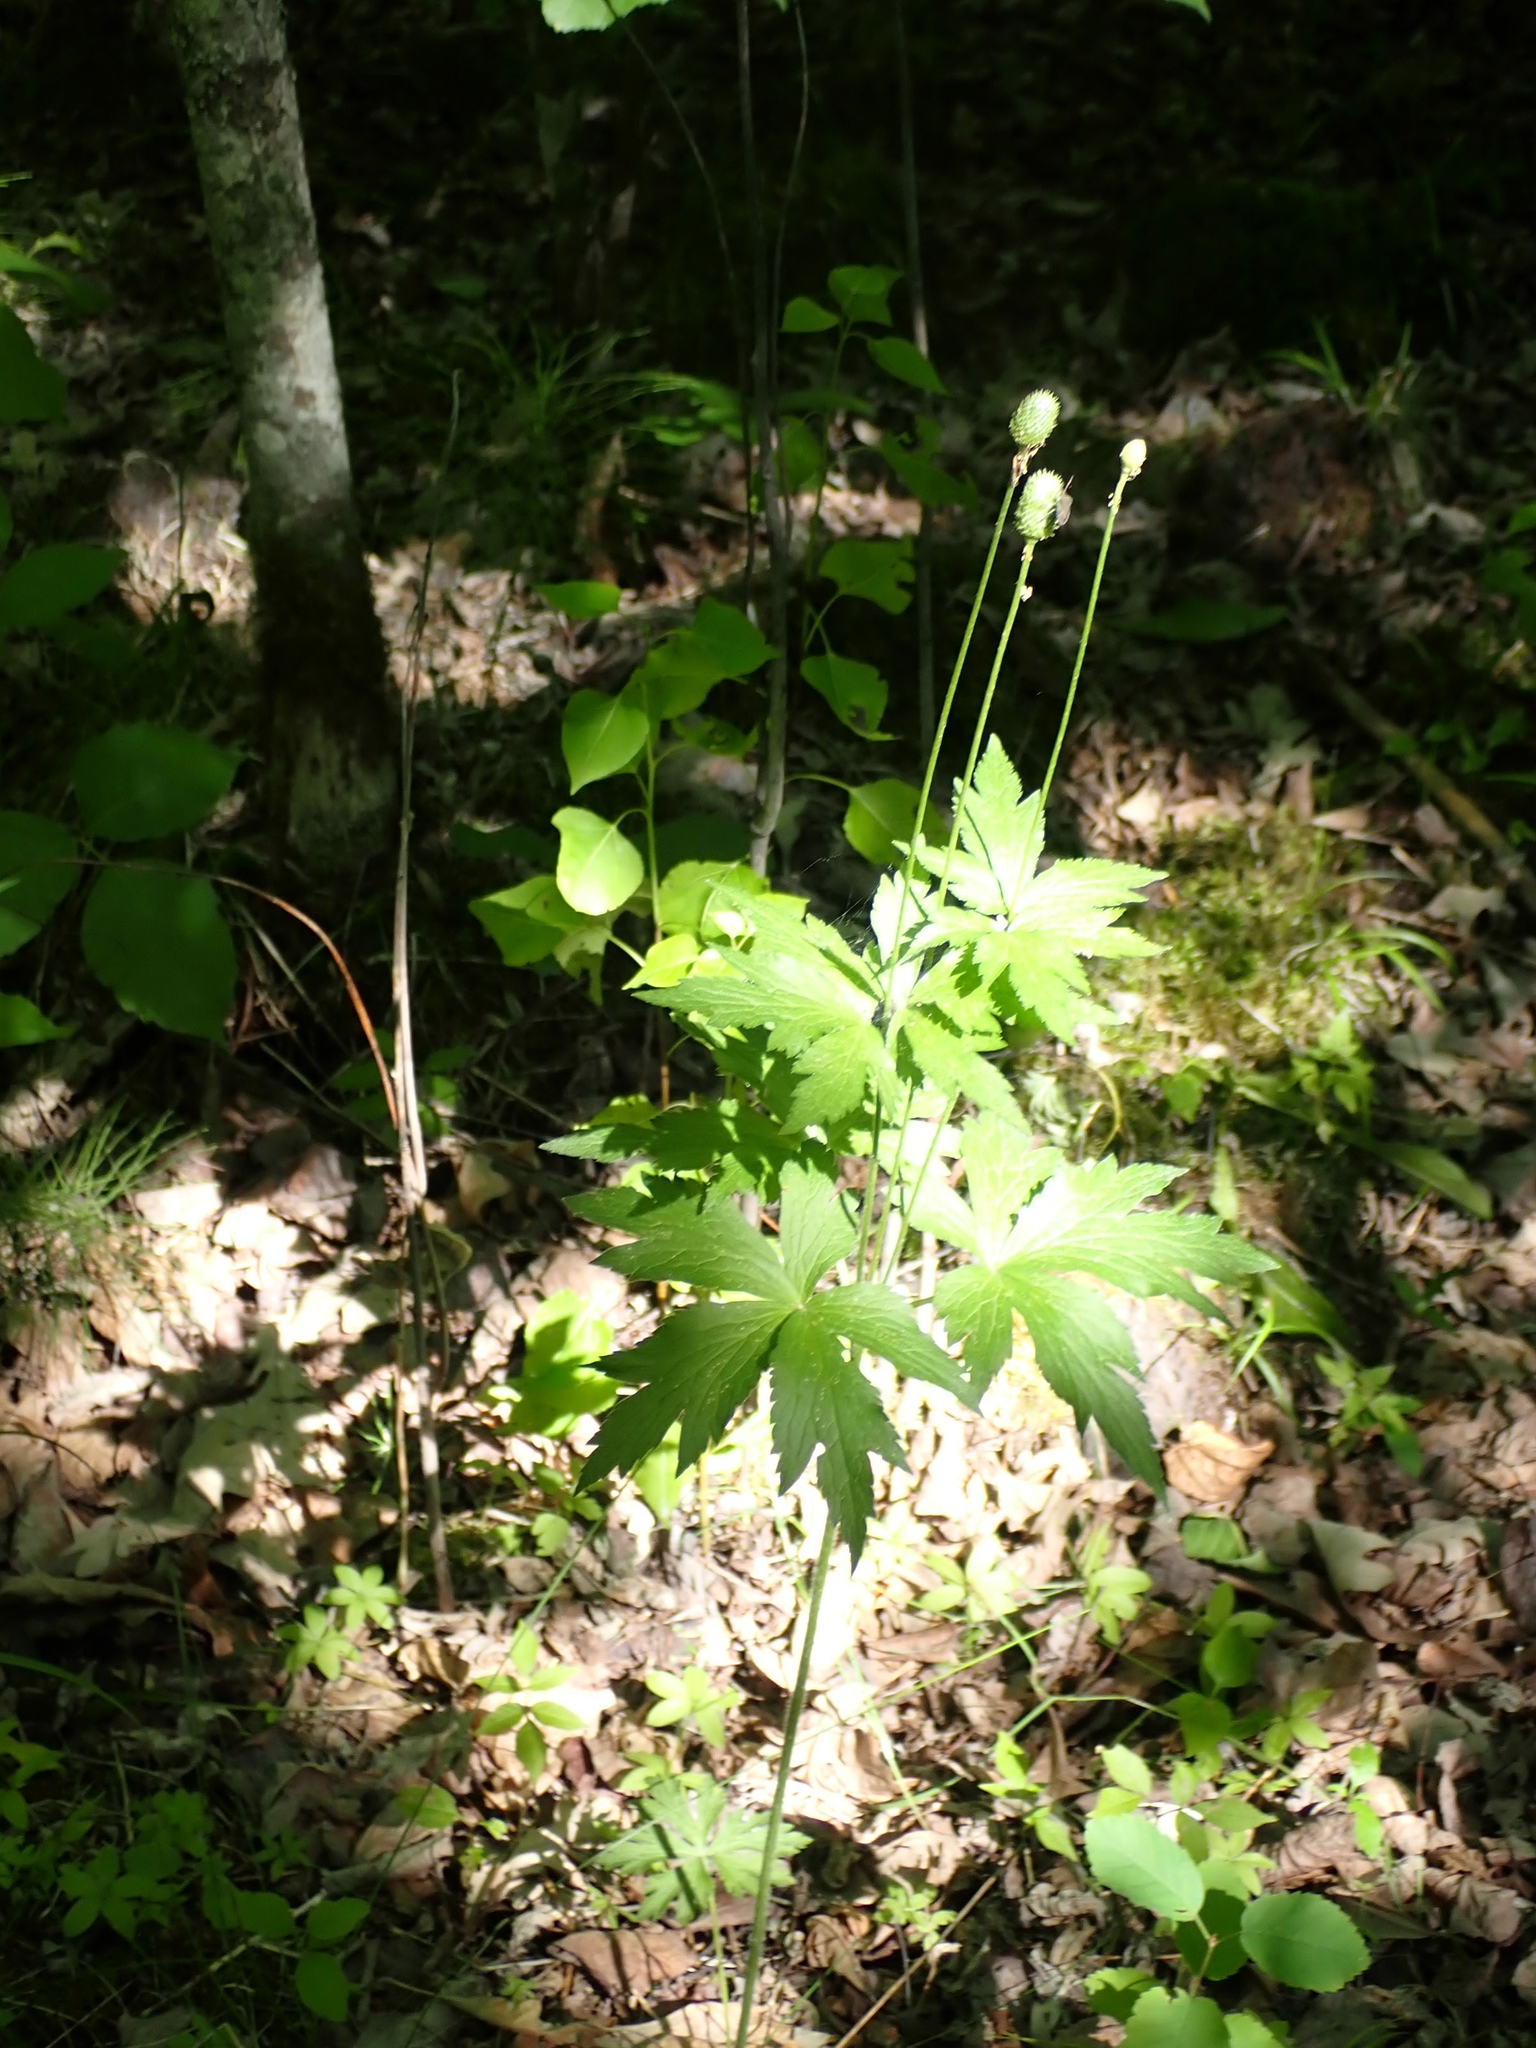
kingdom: Plantae
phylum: Tracheophyta
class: Magnoliopsida
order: Ranunculales
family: Ranunculaceae
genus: Anemone
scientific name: Anemone virginiana
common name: Tall anemone
